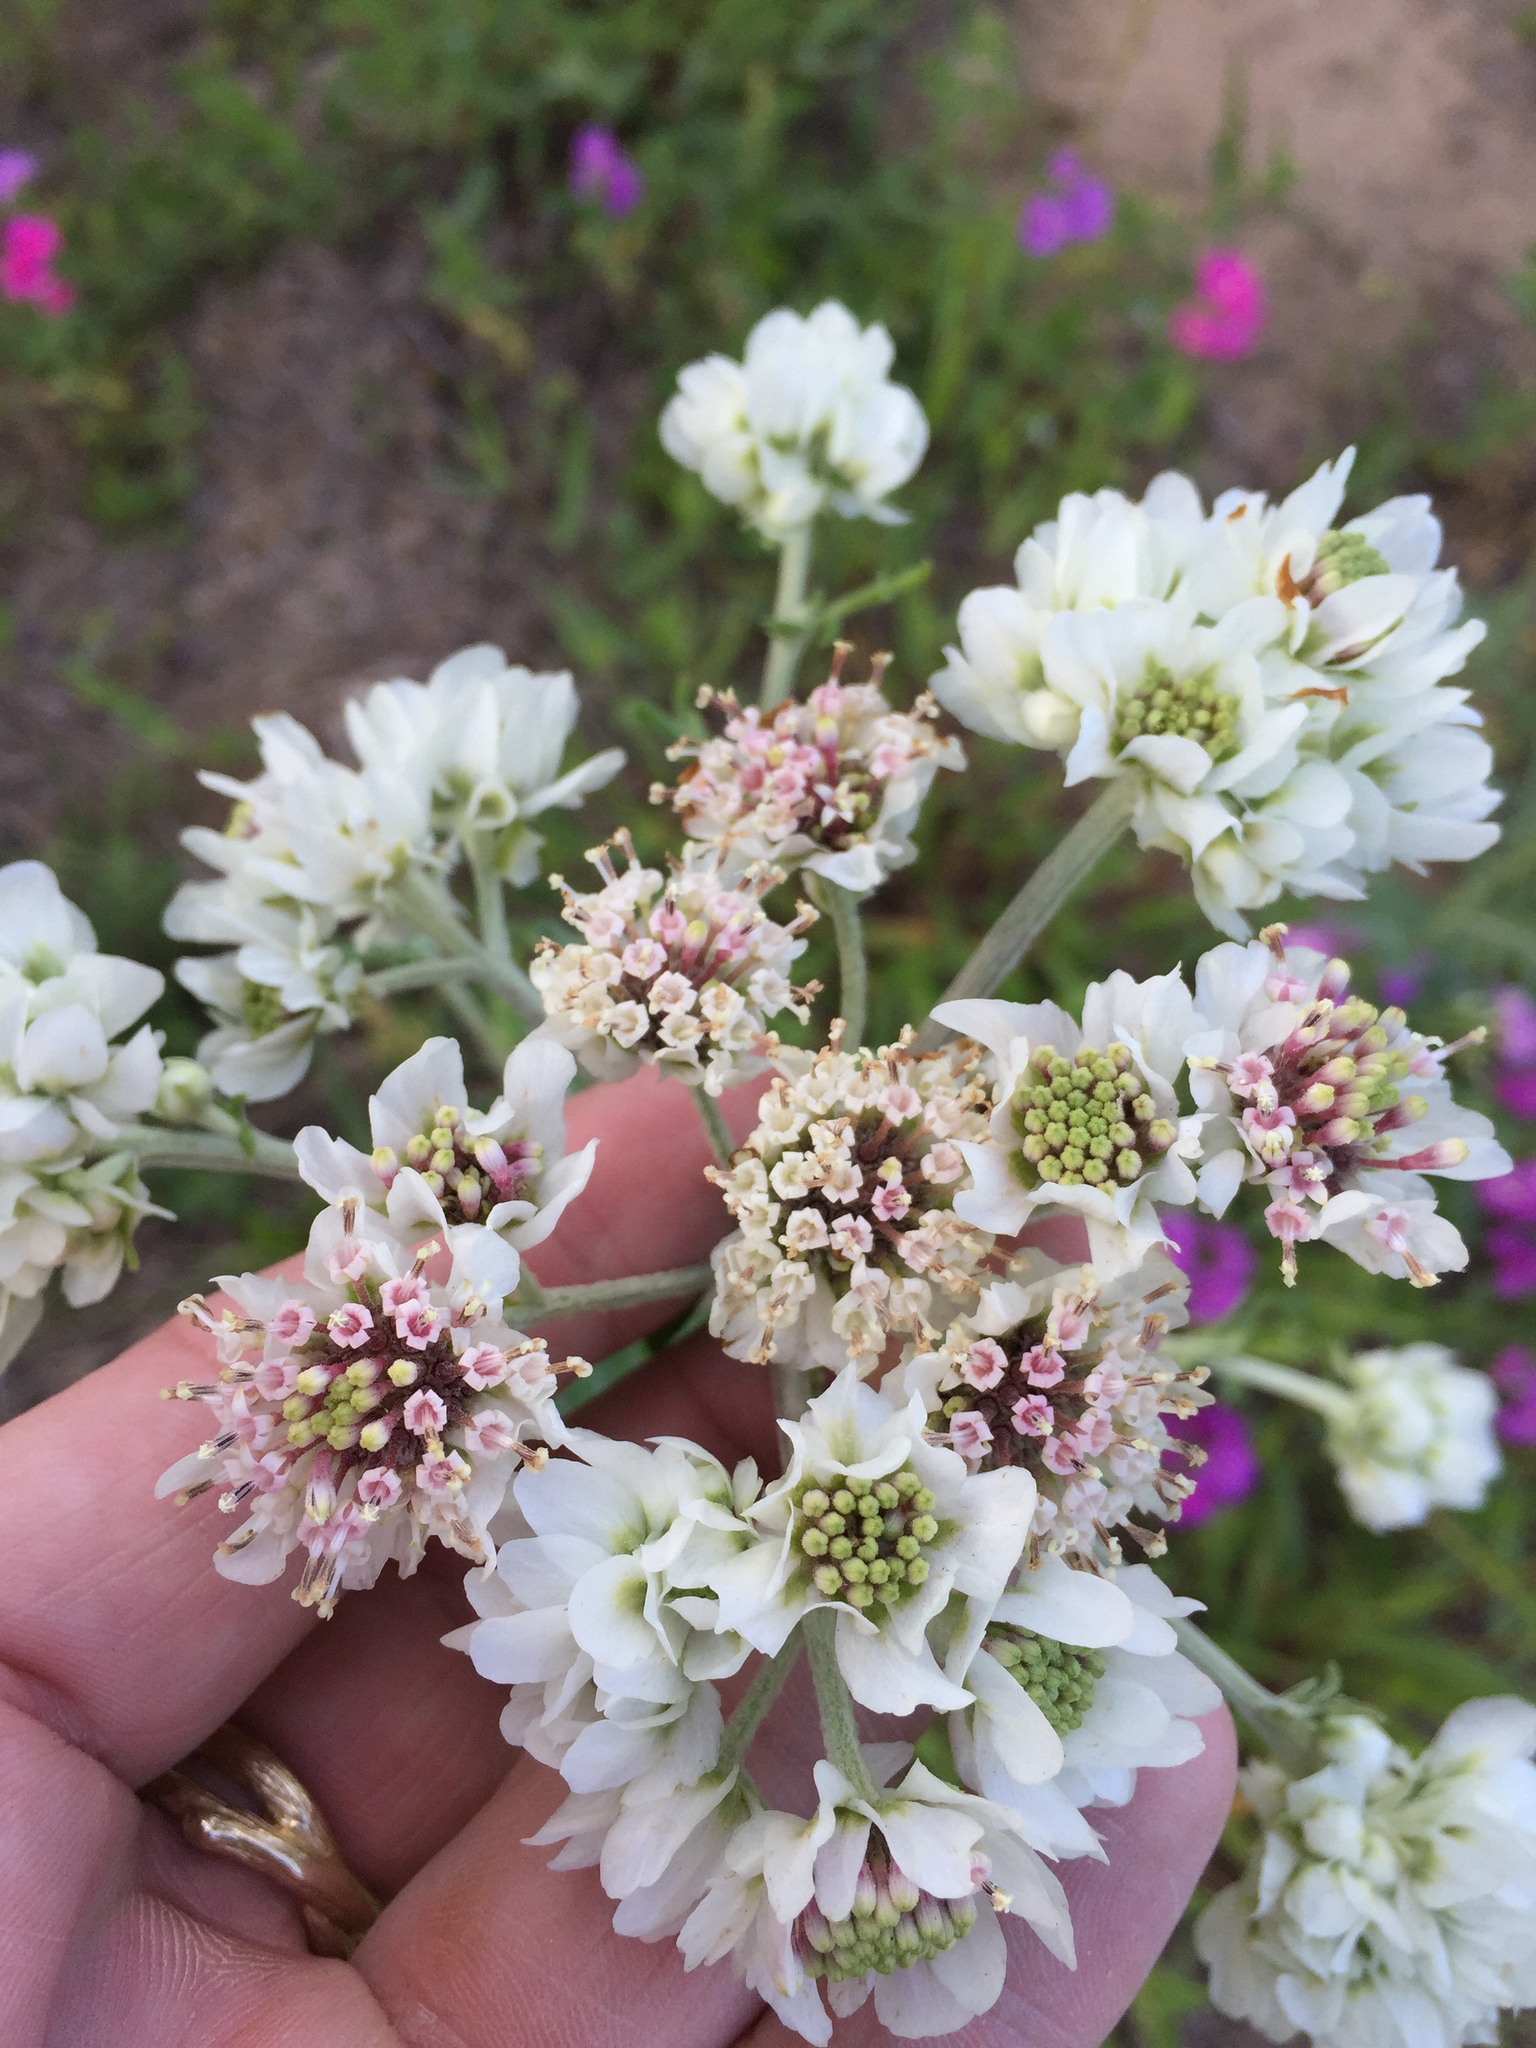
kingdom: Plantae
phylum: Tracheophyta
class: Magnoliopsida
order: Asterales
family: Asteraceae
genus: Hymenopappus
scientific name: Hymenopappus artemisiifolius
